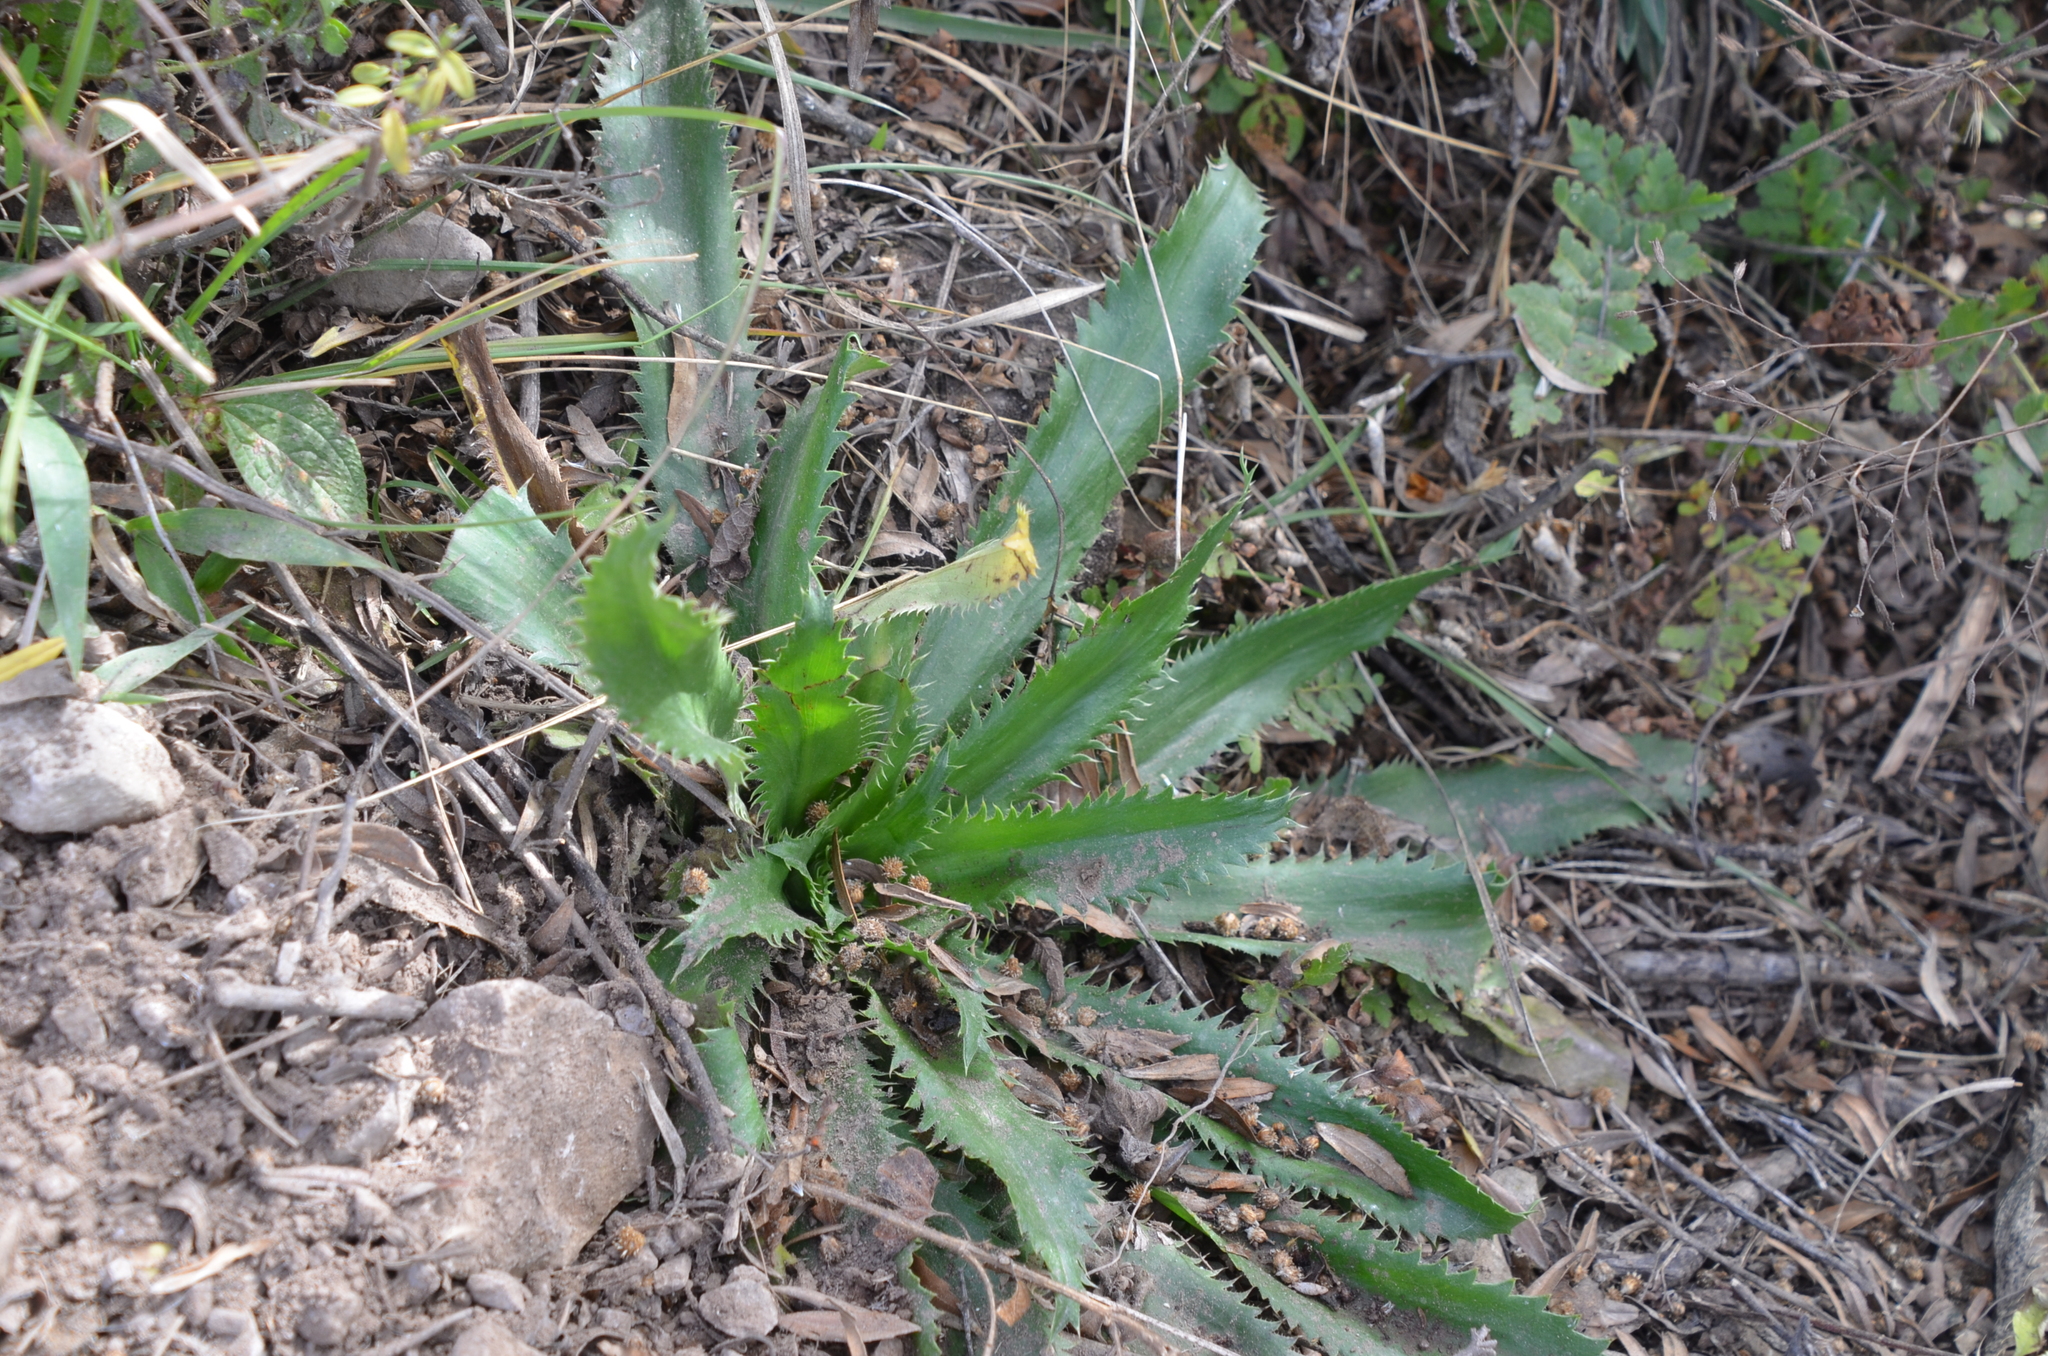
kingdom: Plantae
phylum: Tracheophyta
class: Magnoliopsida
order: Apiales
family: Apiaceae
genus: Eryngium
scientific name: Eryngium elegans
